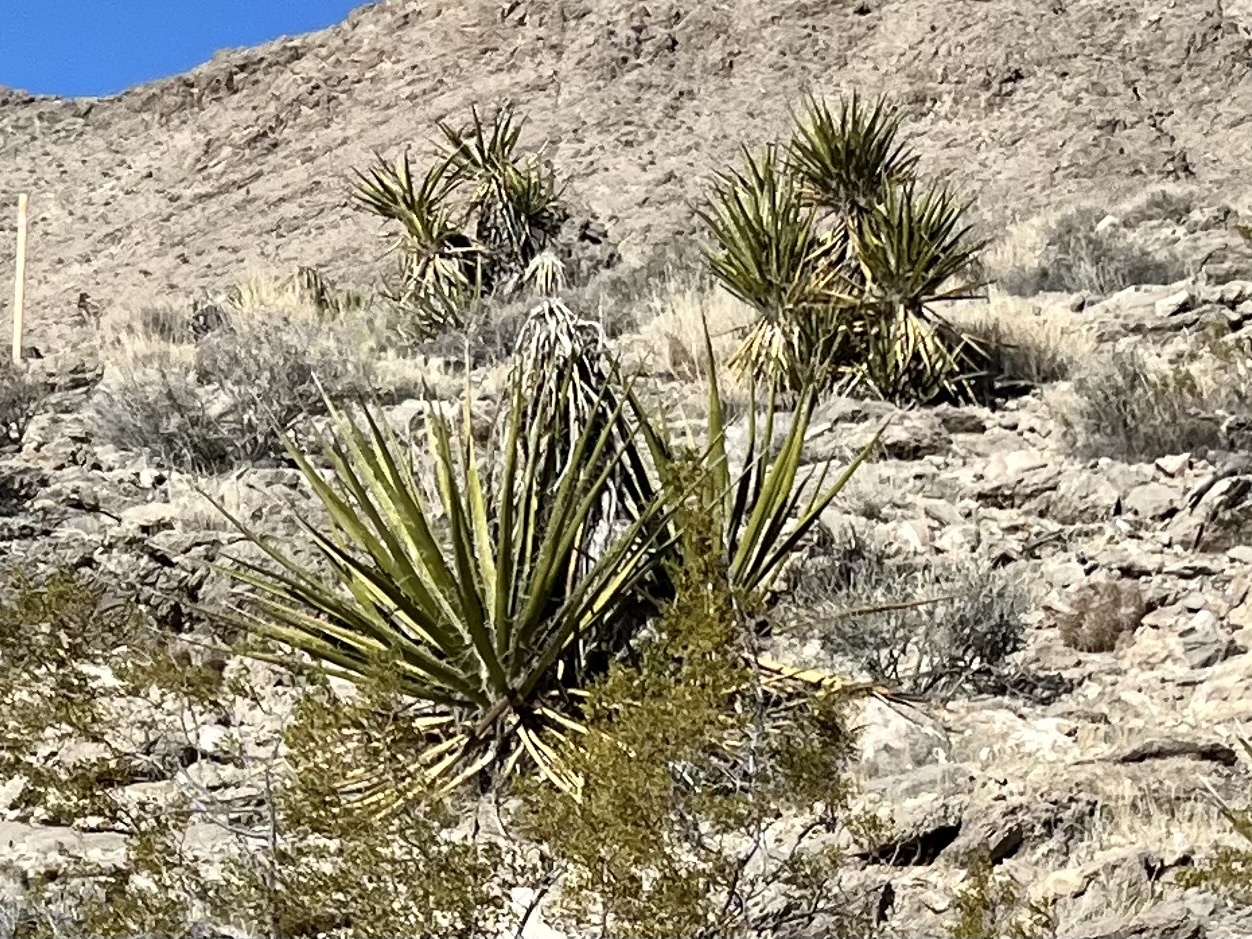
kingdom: Plantae
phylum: Tracheophyta
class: Liliopsida
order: Asparagales
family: Asparagaceae
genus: Yucca
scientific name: Yucca schidigera
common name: Mojave yucca
